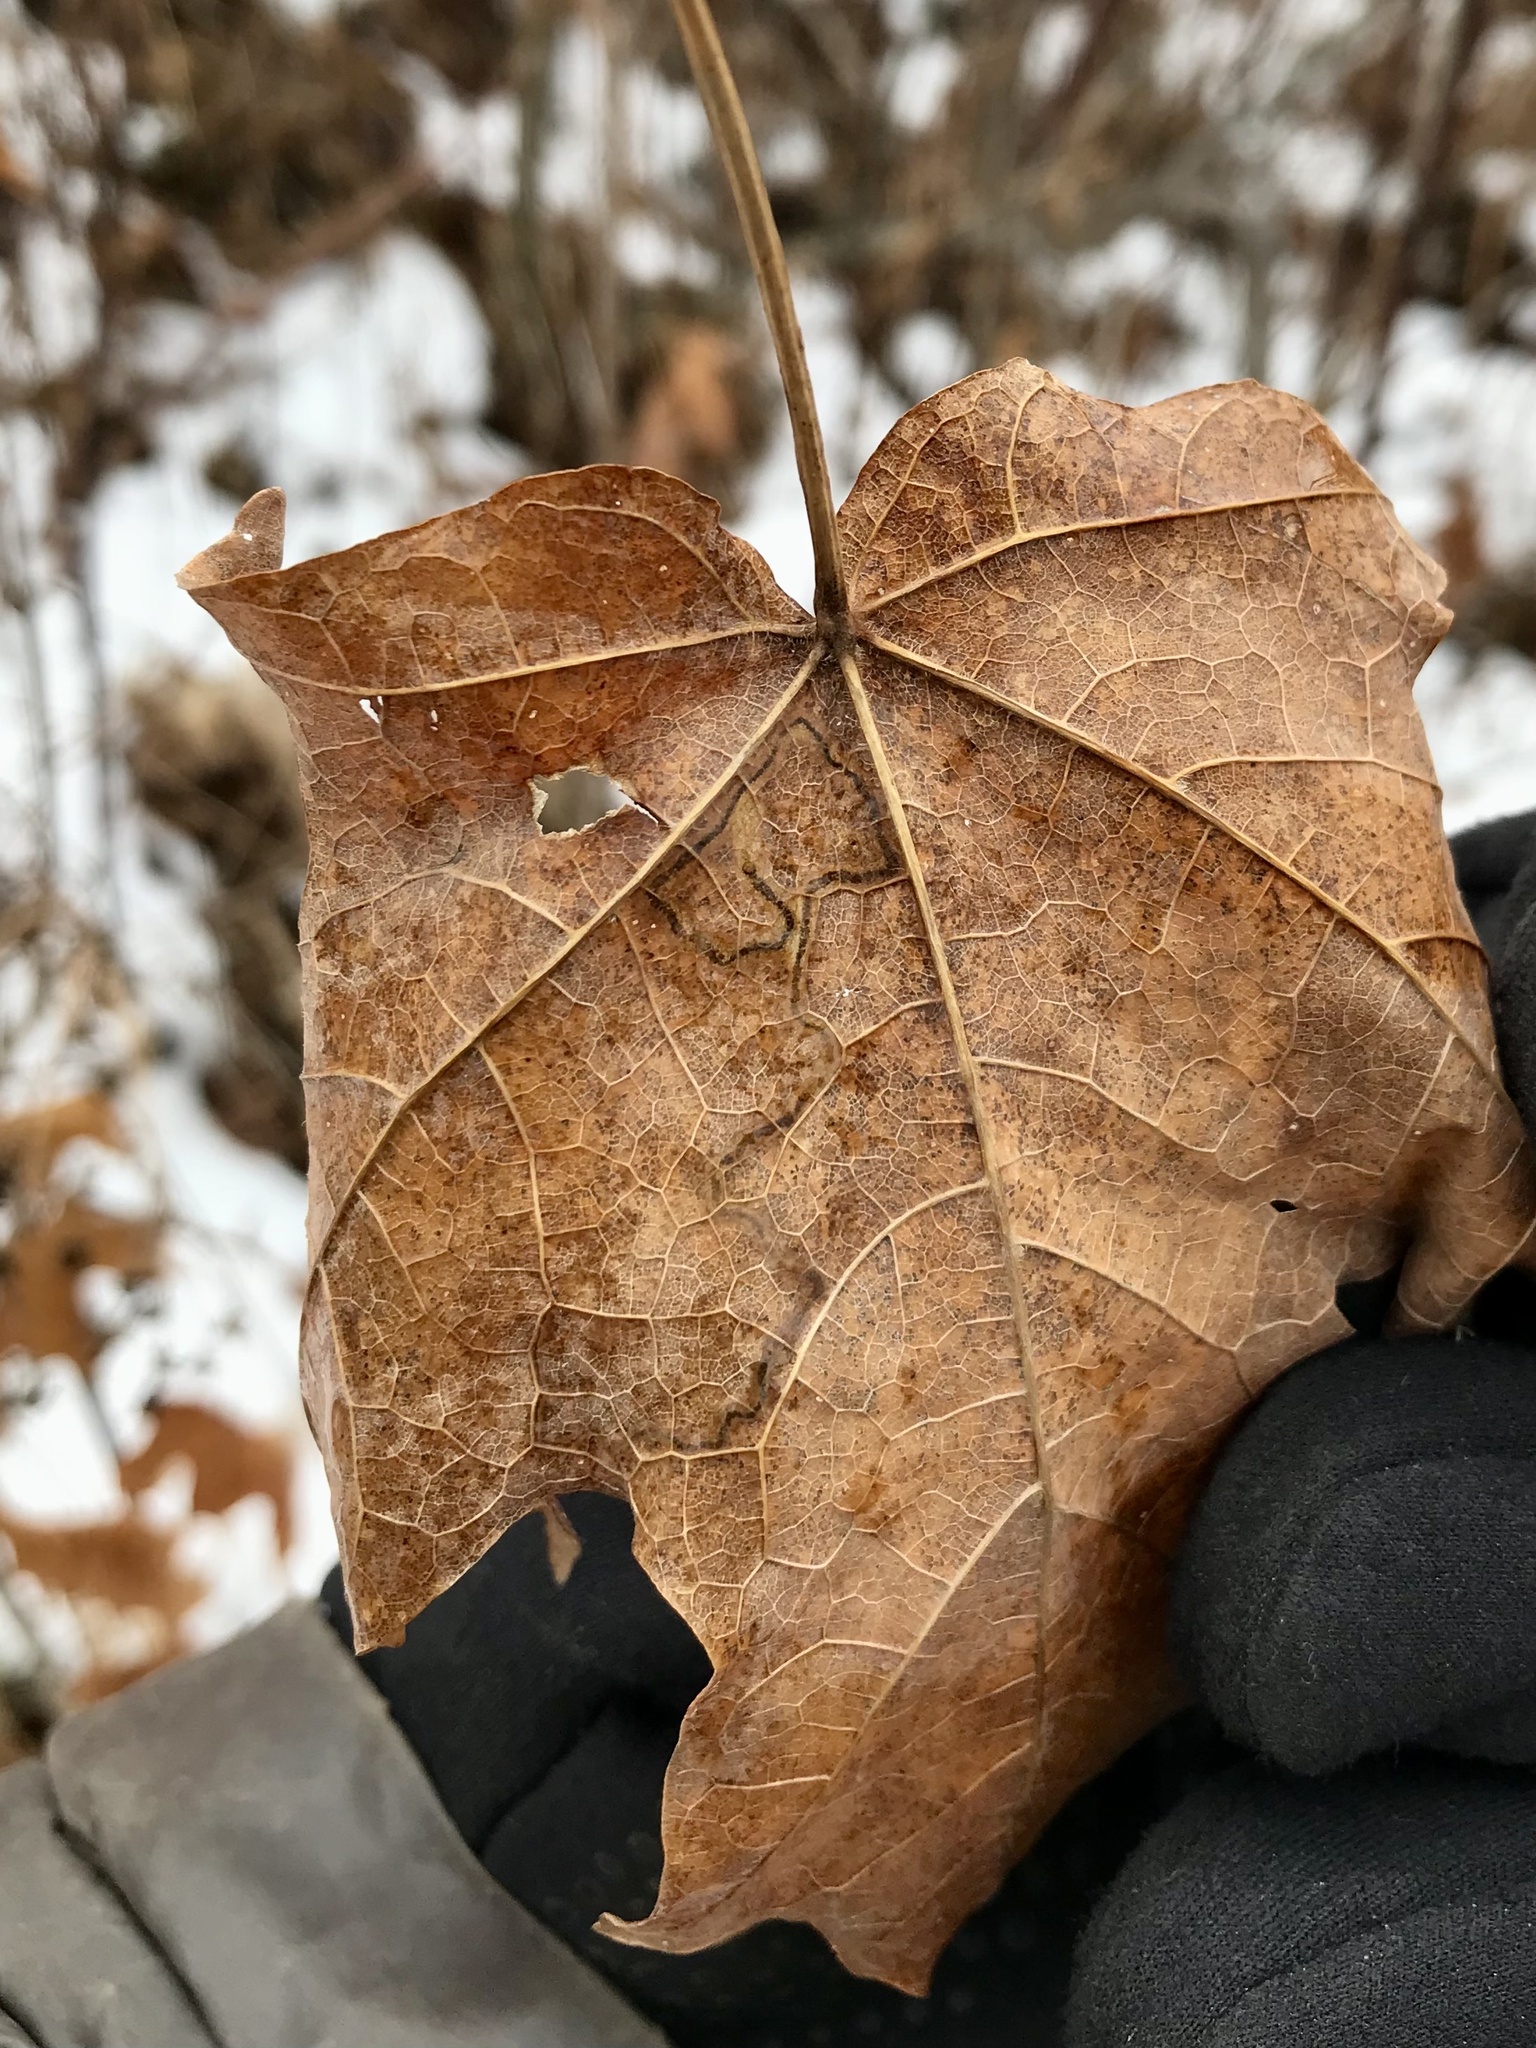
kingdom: Animalia
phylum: Arthropoda
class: Insecta
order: Lepidoptera
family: Nepticulidae
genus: Glaucolepis
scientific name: Glaucolepis saccharella
